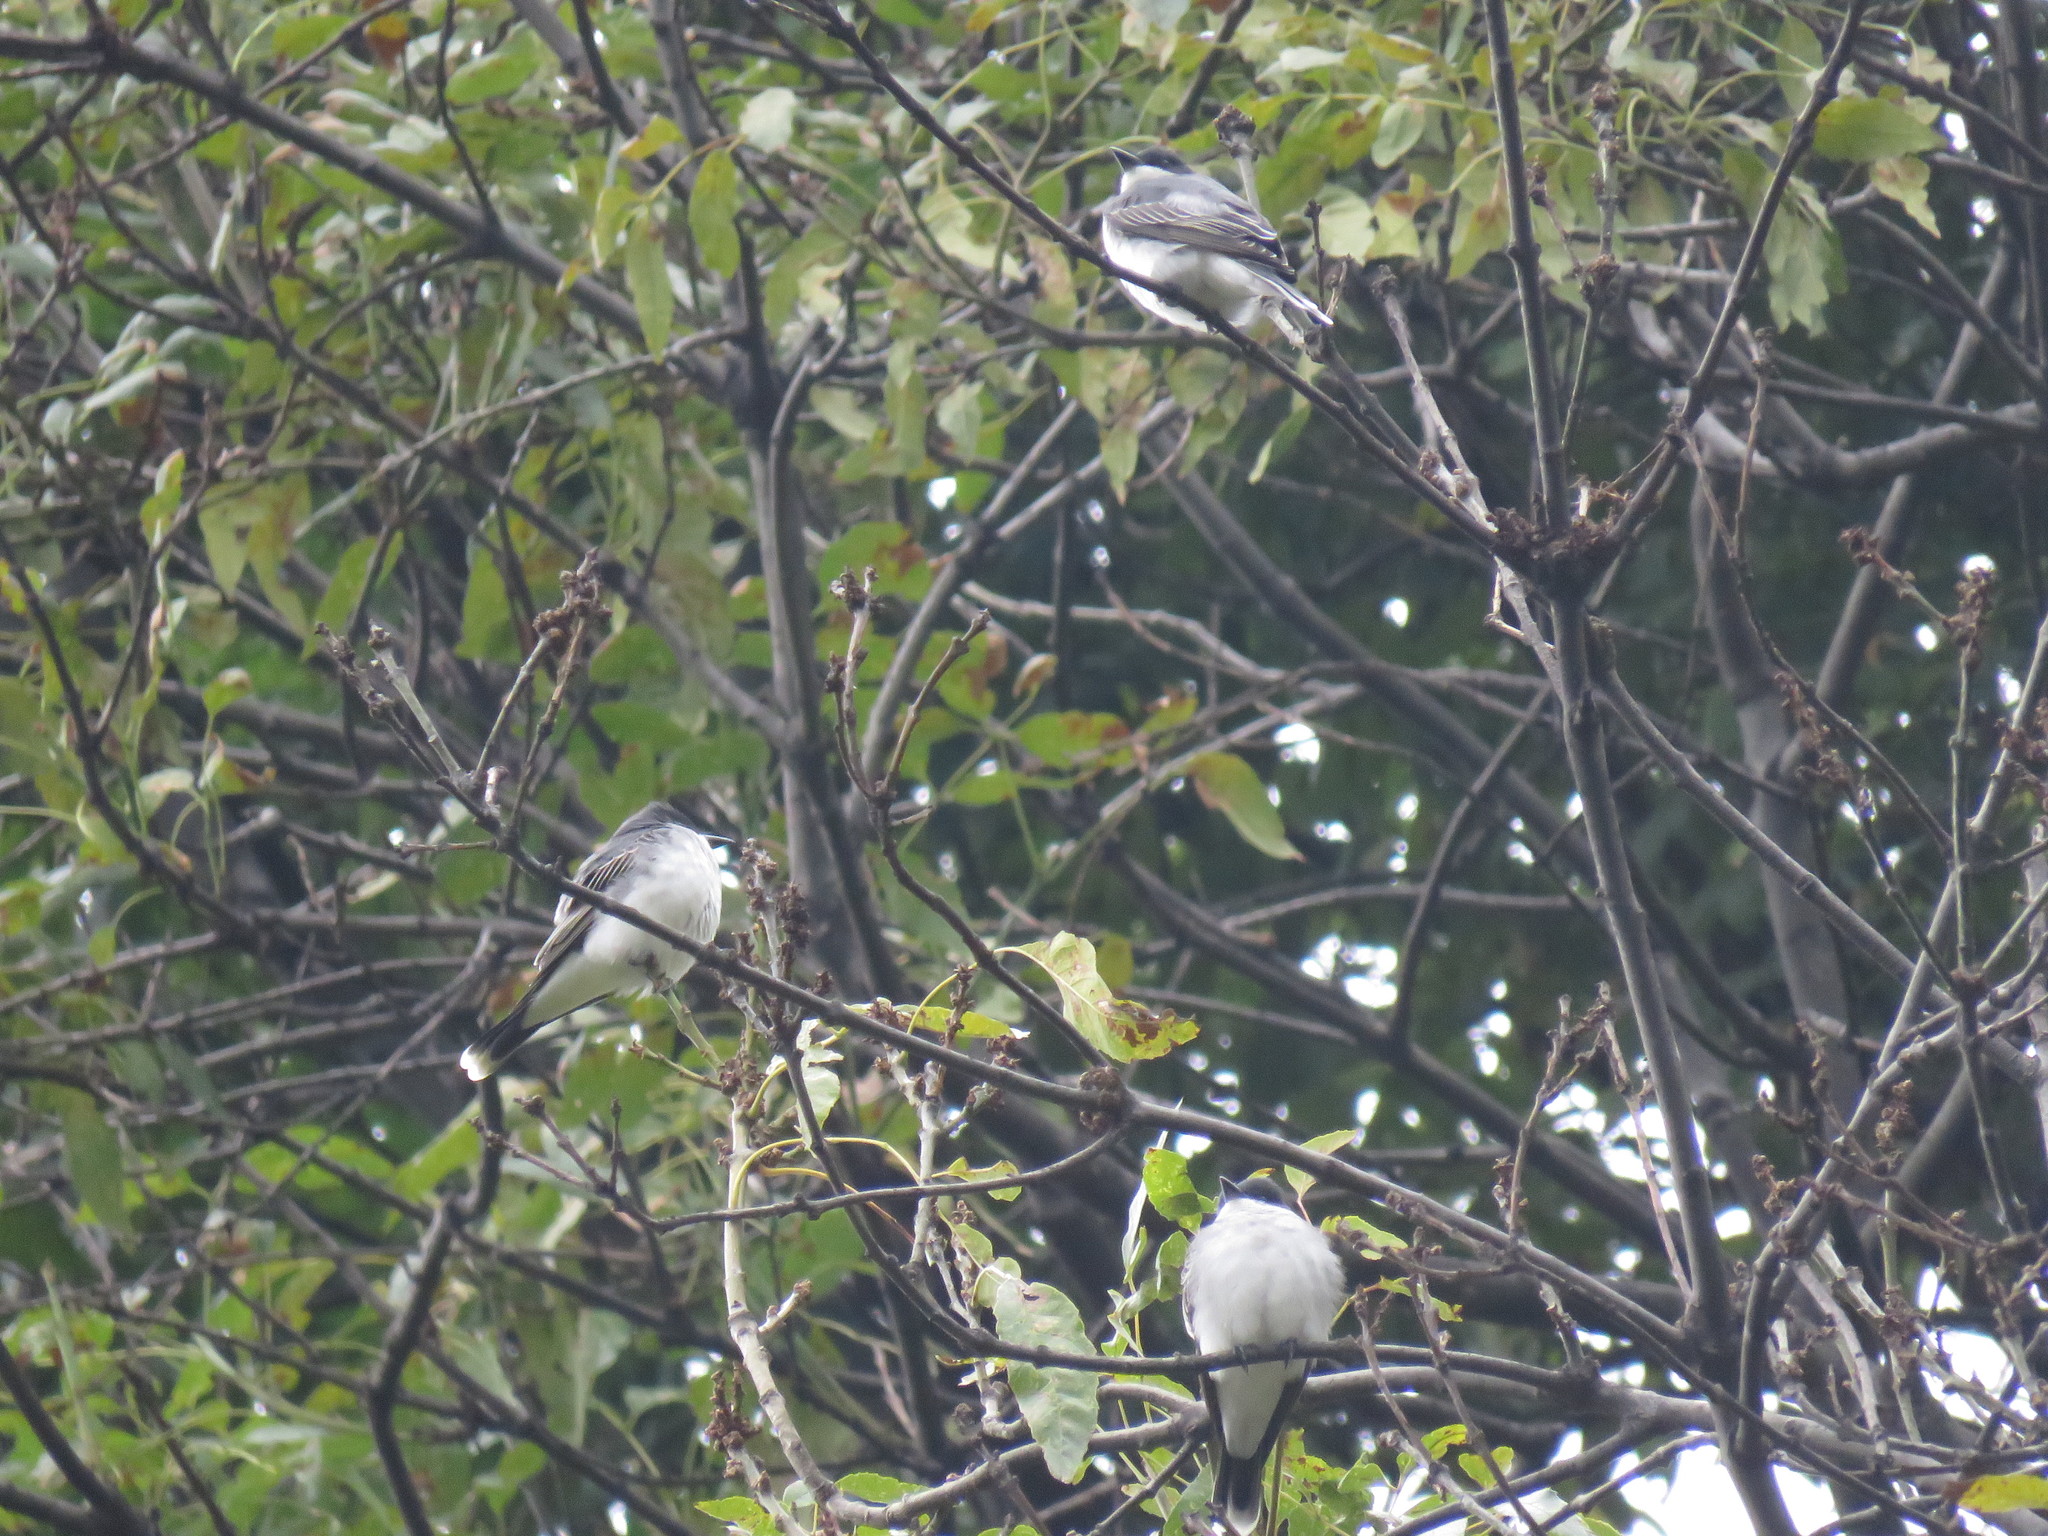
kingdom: Animalia
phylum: Chordata
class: Aves
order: Passeriformes
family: Tyrannidae
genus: Tyrannus
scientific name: Tyrannus tyrannus
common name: Eastern kingbird
